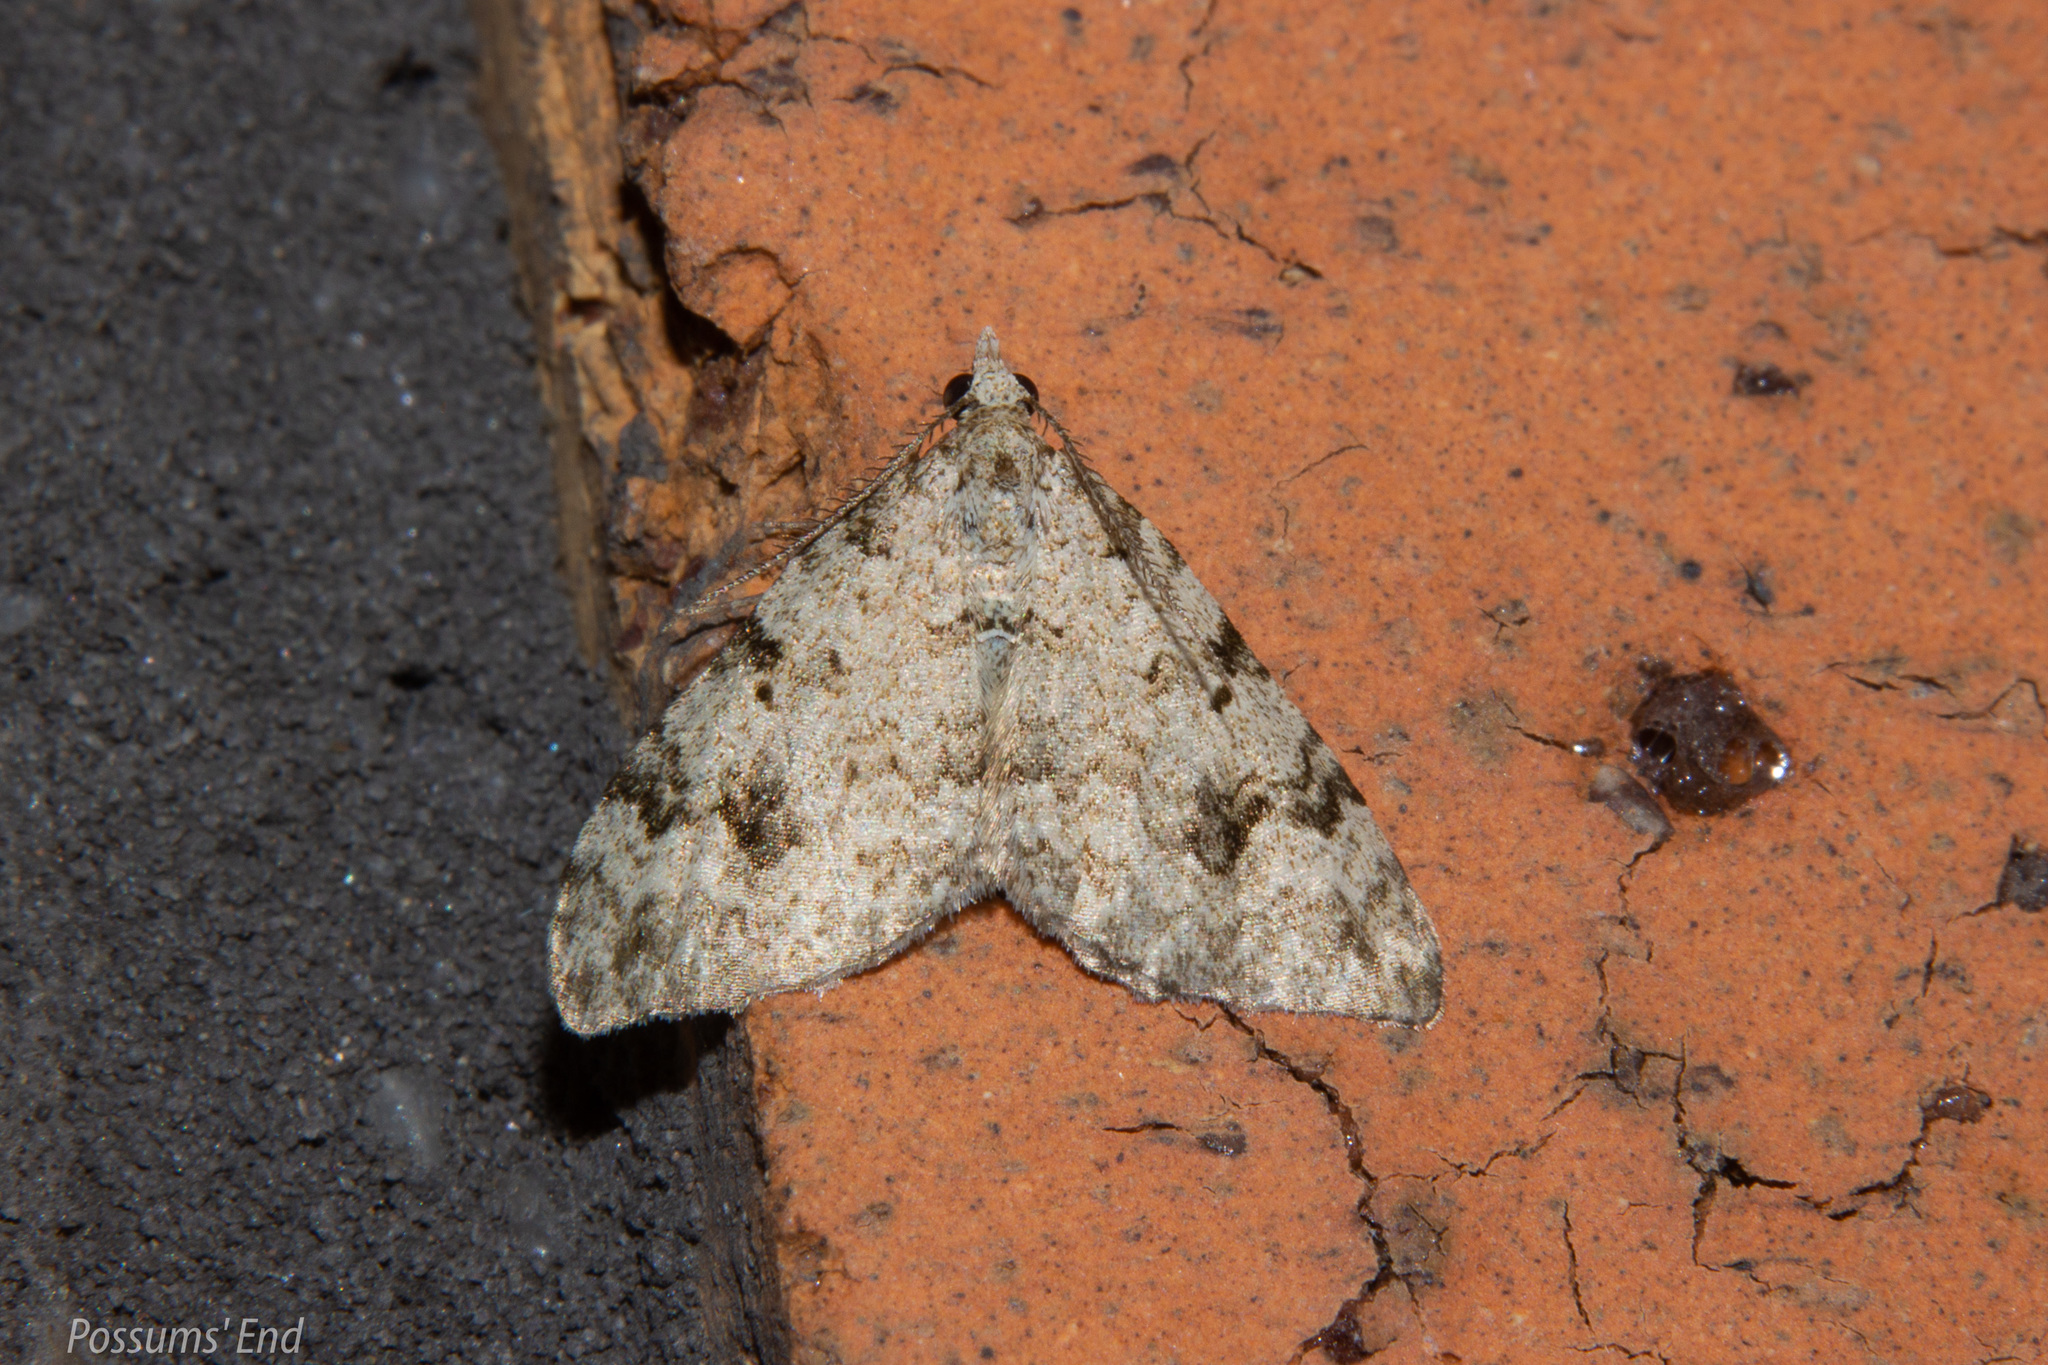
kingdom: Animalia
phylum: Arthropoda
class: Insecta
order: Lepidoptera
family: Geometridae
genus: Helastia
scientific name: Helastia cinerearia
